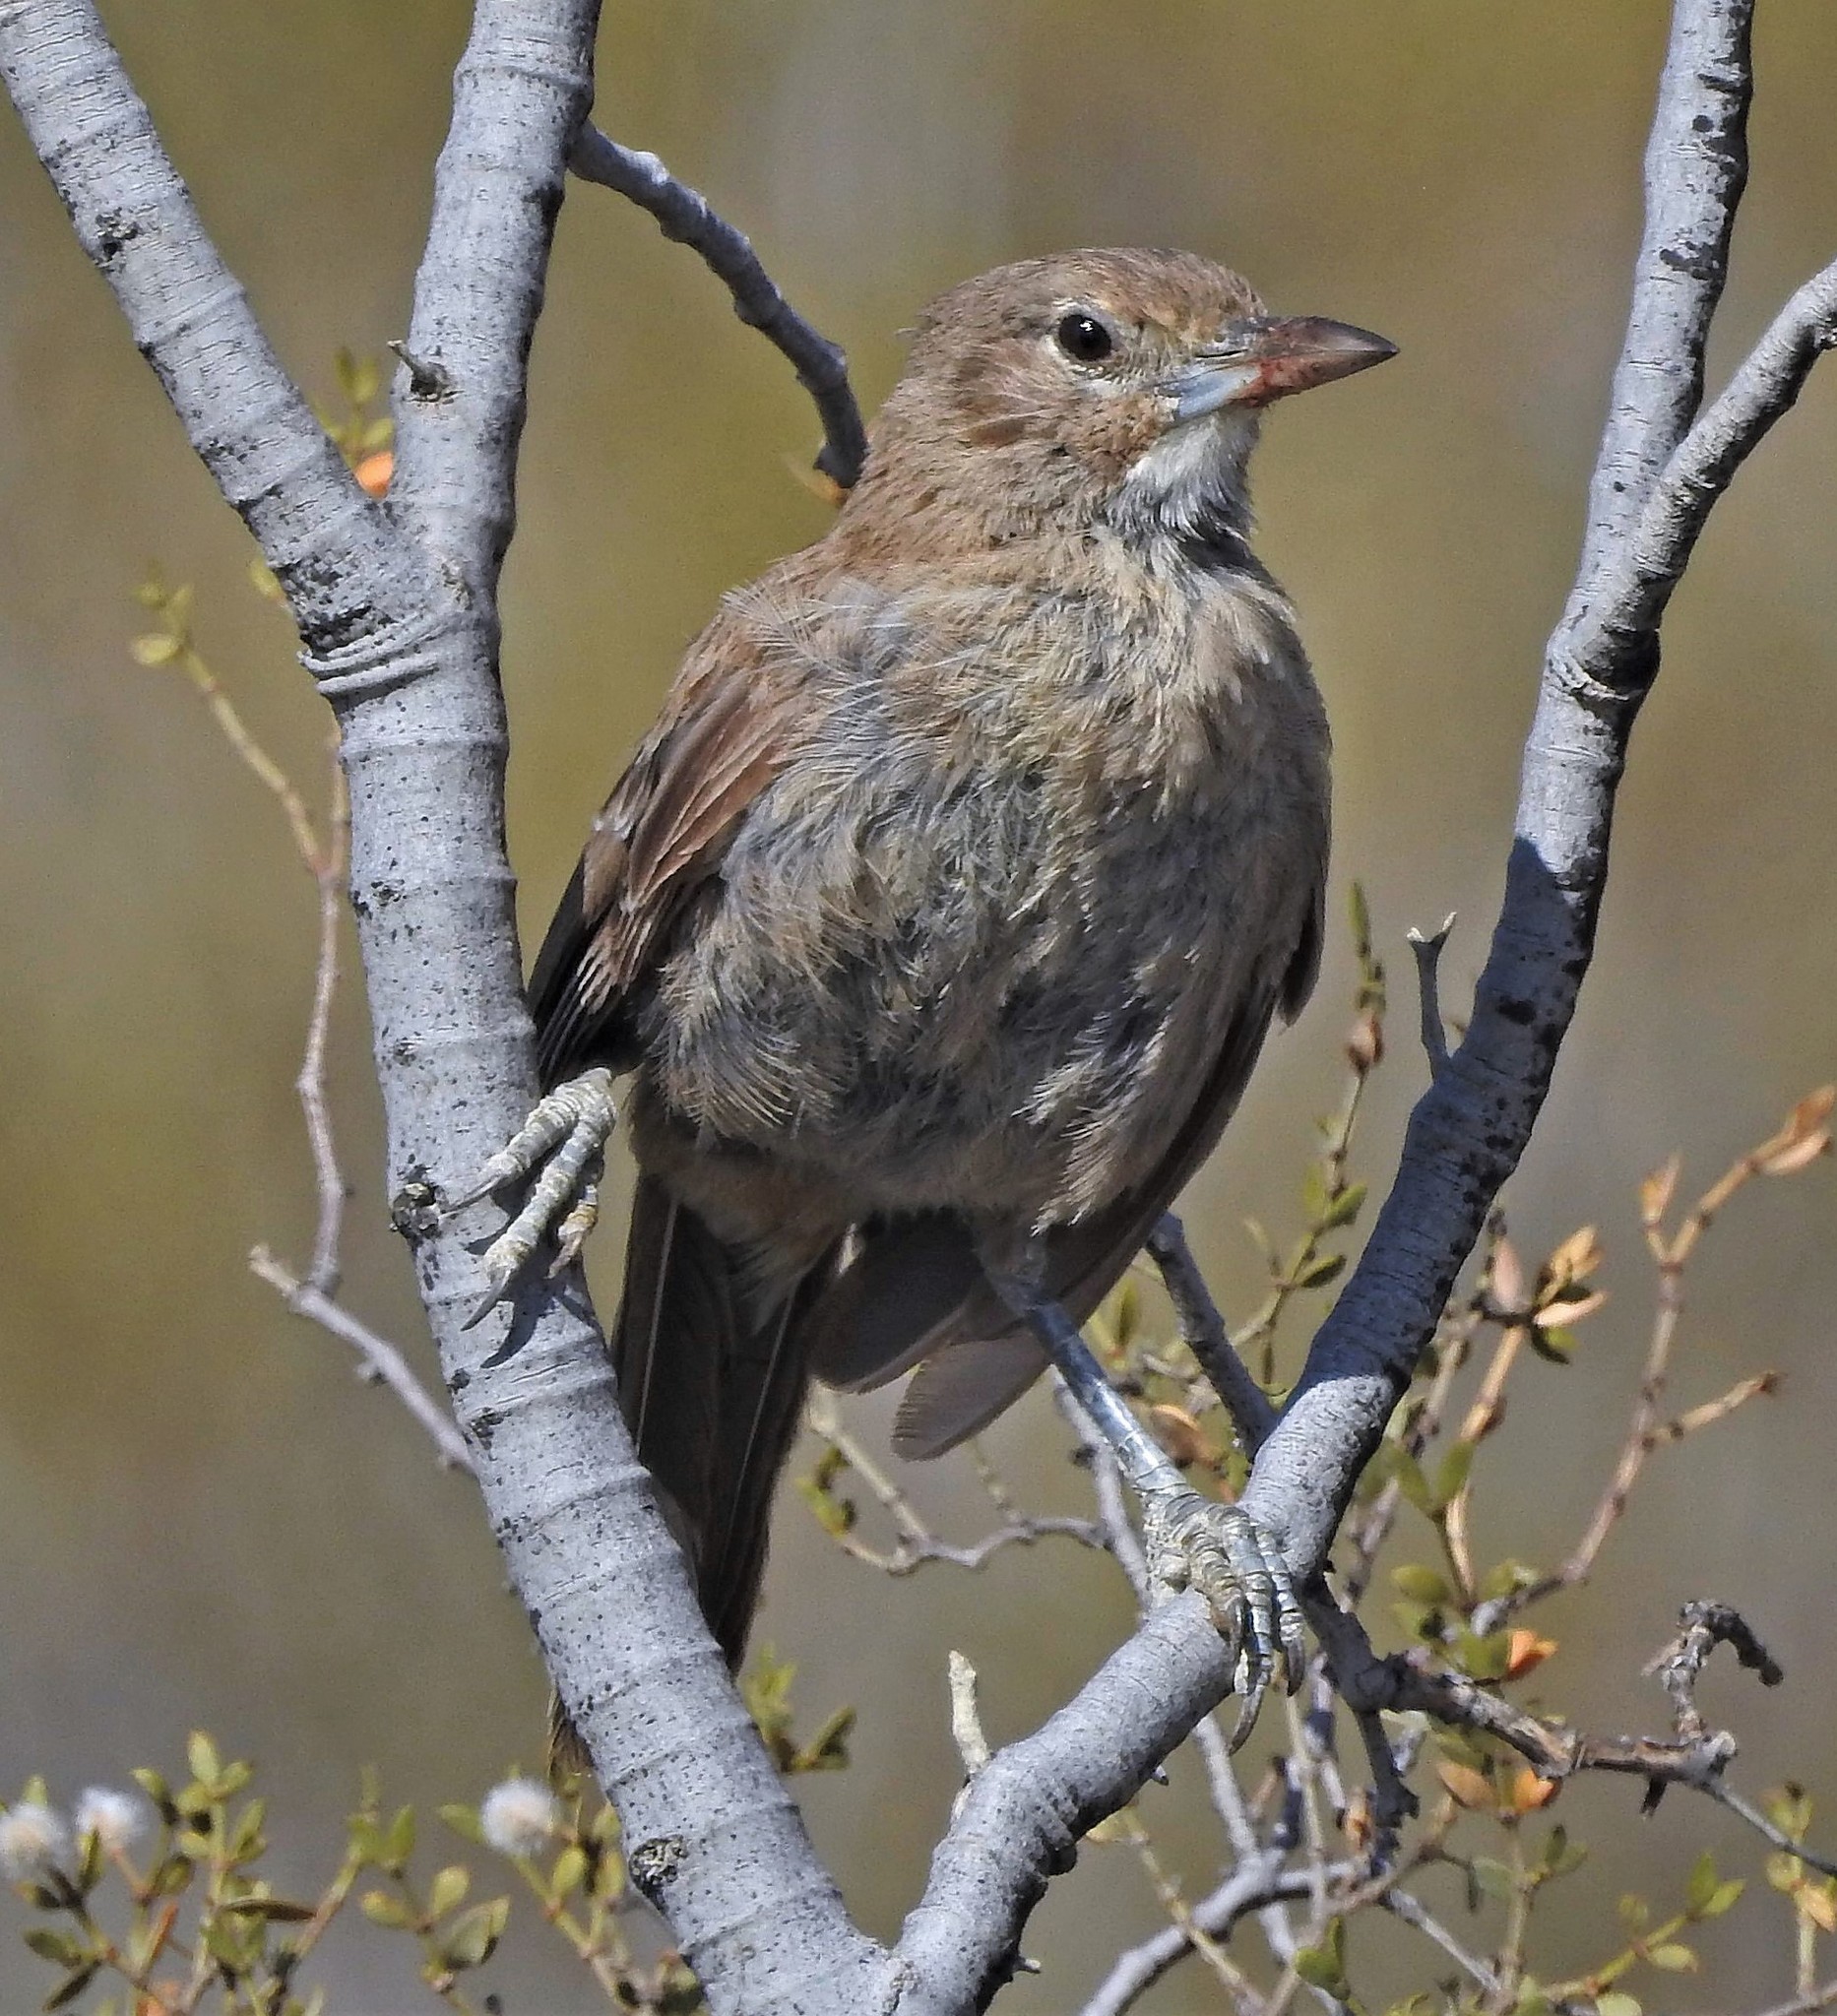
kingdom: Animalia
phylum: Chordata
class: Aves
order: Passeriformes
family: Furnariidae
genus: Pseudoseisura
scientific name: Pseudoseisura gutturalis
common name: White-throated cacholote
